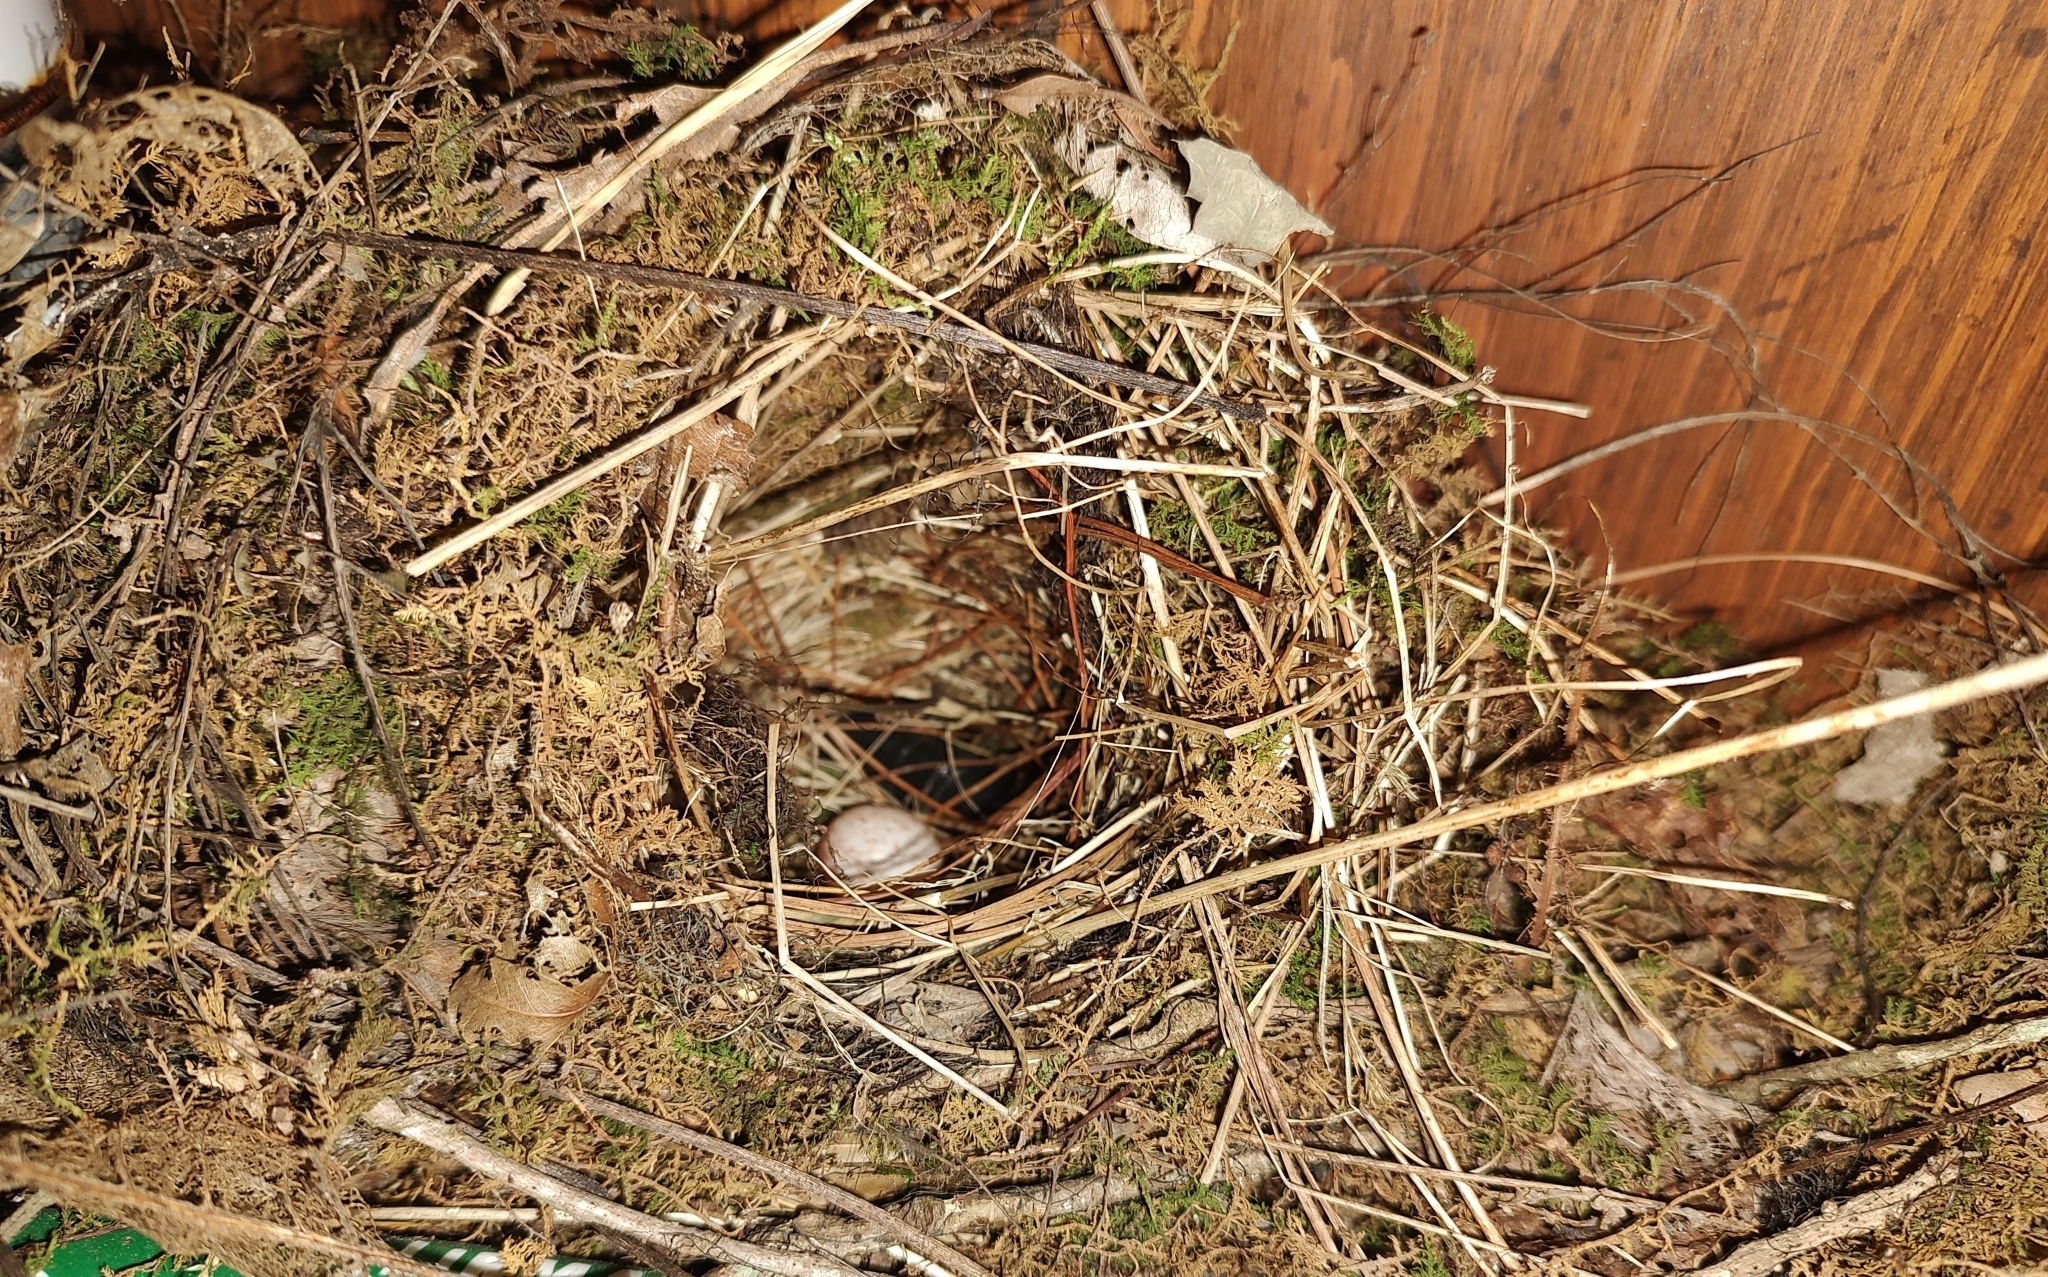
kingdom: Animalia
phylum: Chordata
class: Aves
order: Passeriformes
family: Troglodytidae
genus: Thryothorus
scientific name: Thryothorus ludovicianus
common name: Carolina wren
